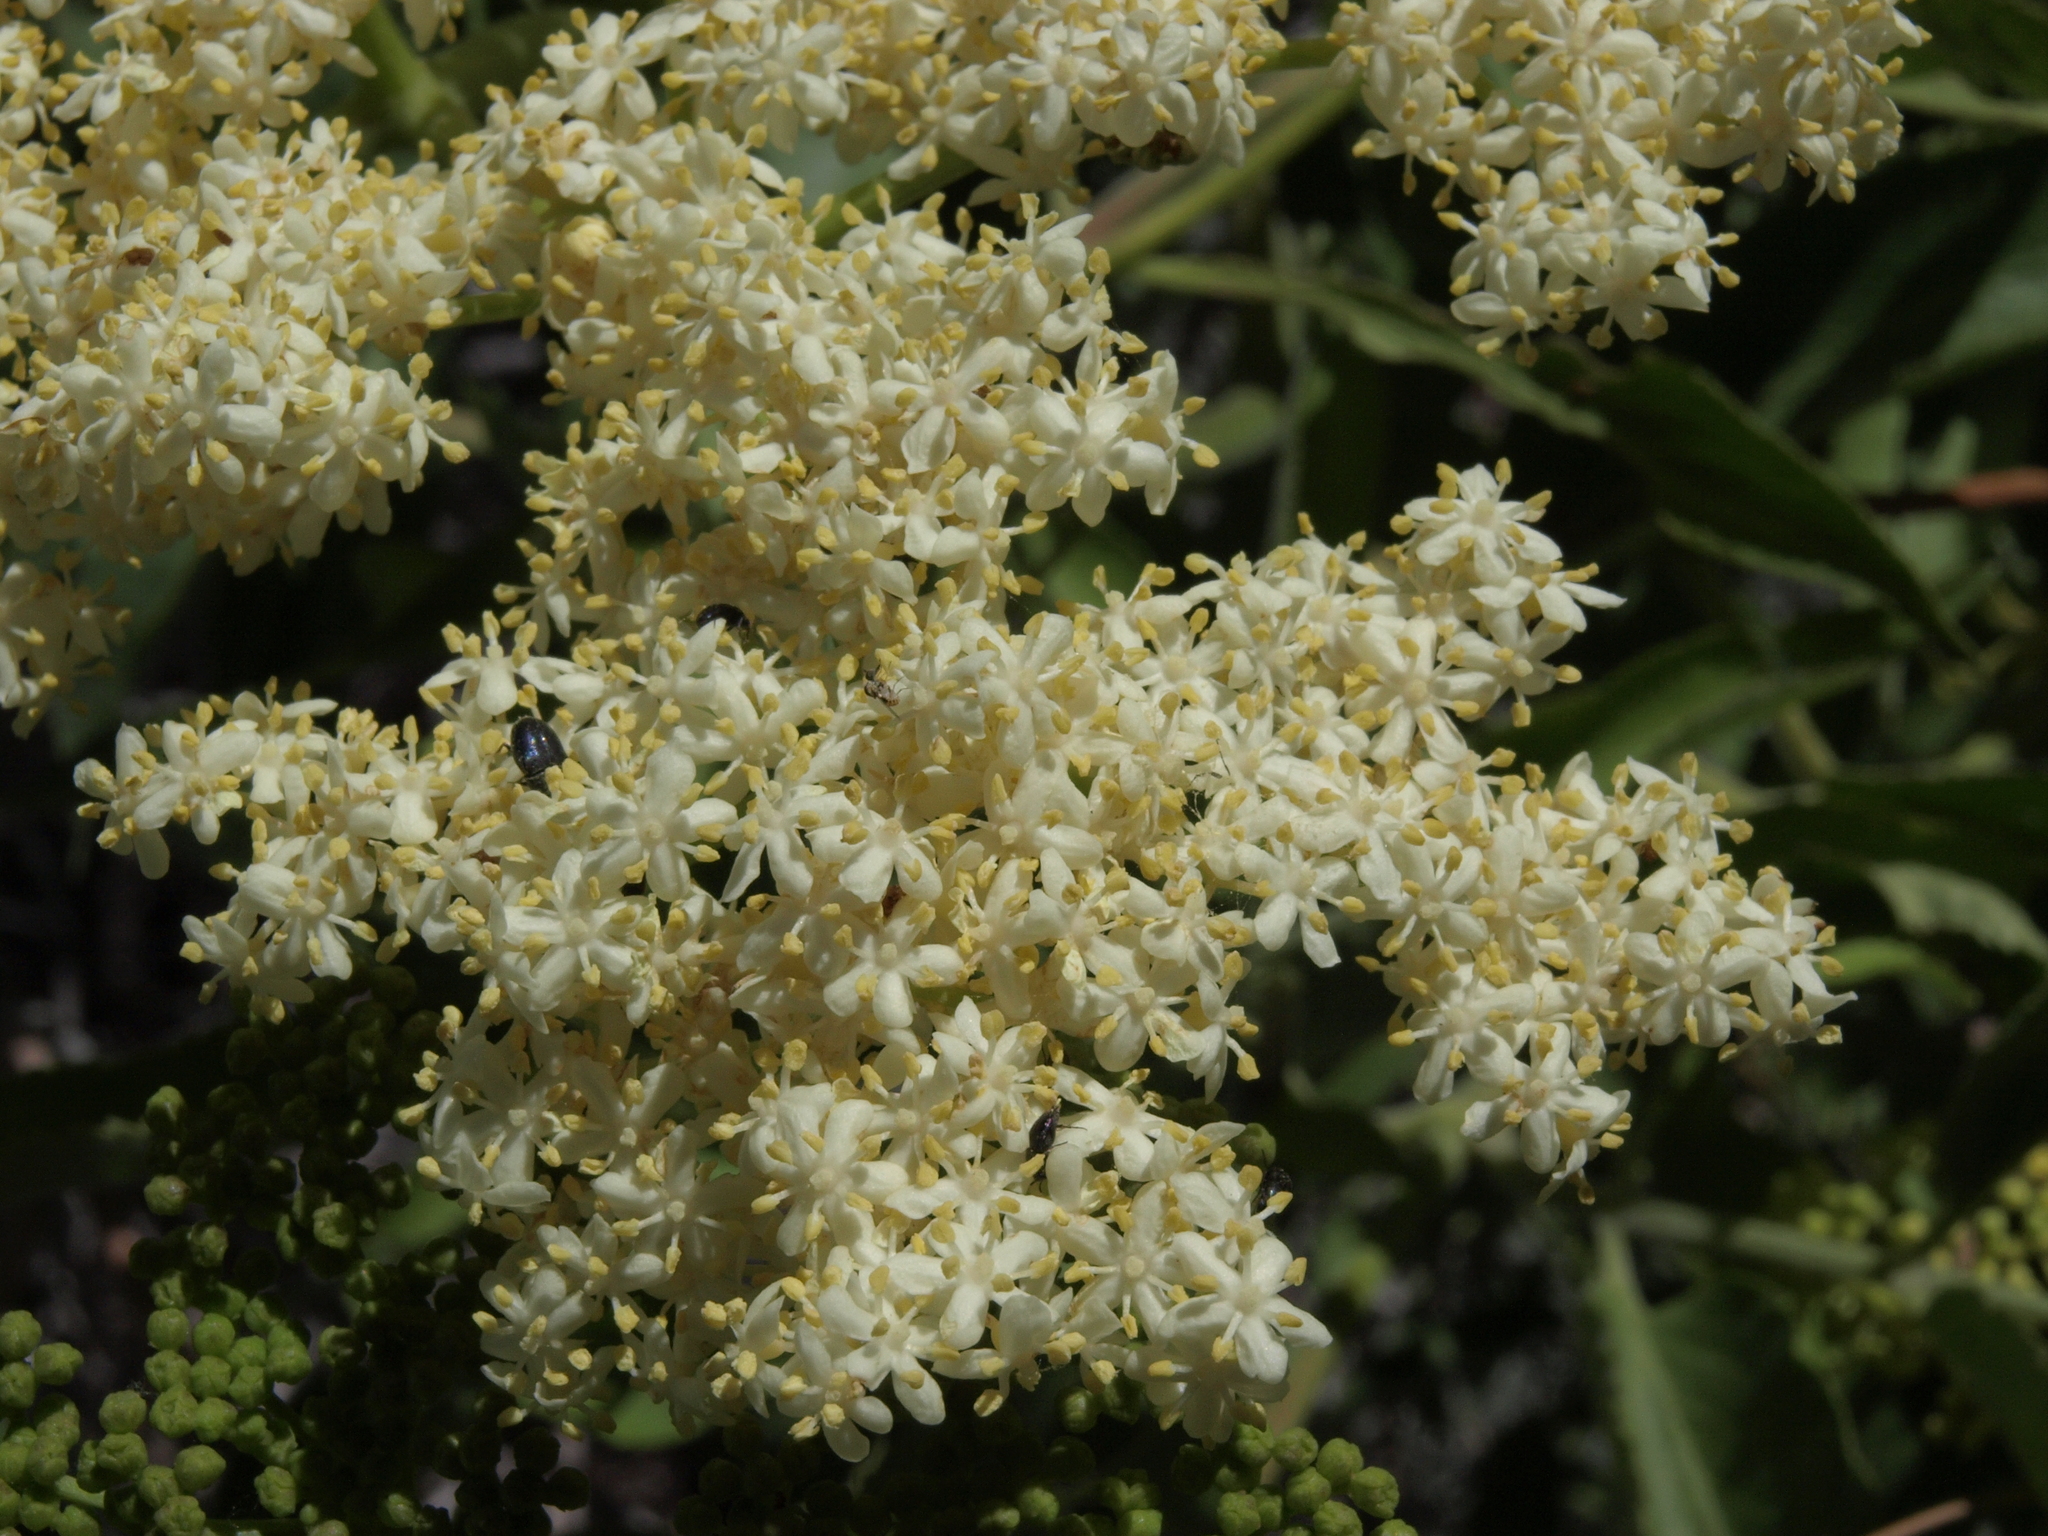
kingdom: Plantae
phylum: Tracheophyta
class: Magnoliopsida
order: Dipsacales
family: Viburnaceae
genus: Sambucus
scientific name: Sambucus cerulea
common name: Blue elder
